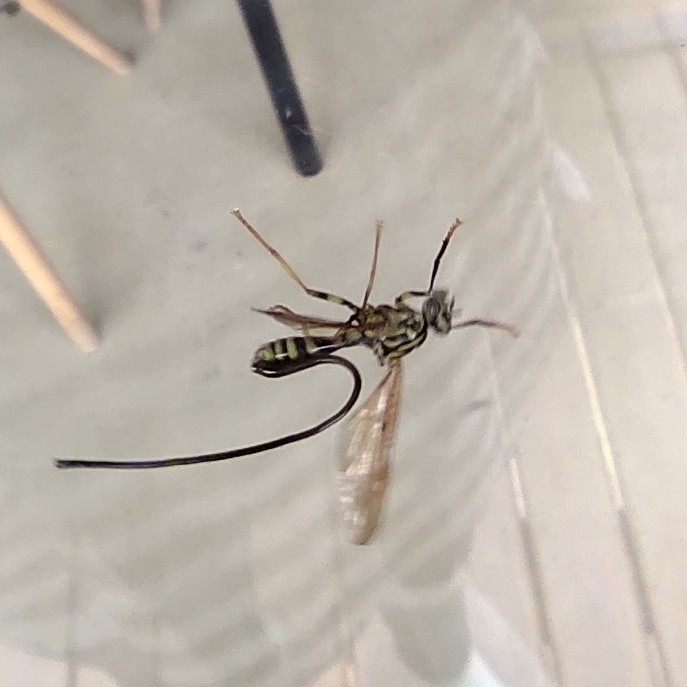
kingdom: Animalia
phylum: Arthropoda
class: Insecta
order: Diptera
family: Tephritidae
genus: Anastrepha
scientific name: Anastrepha curvicauda
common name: Papaya fruit fly
